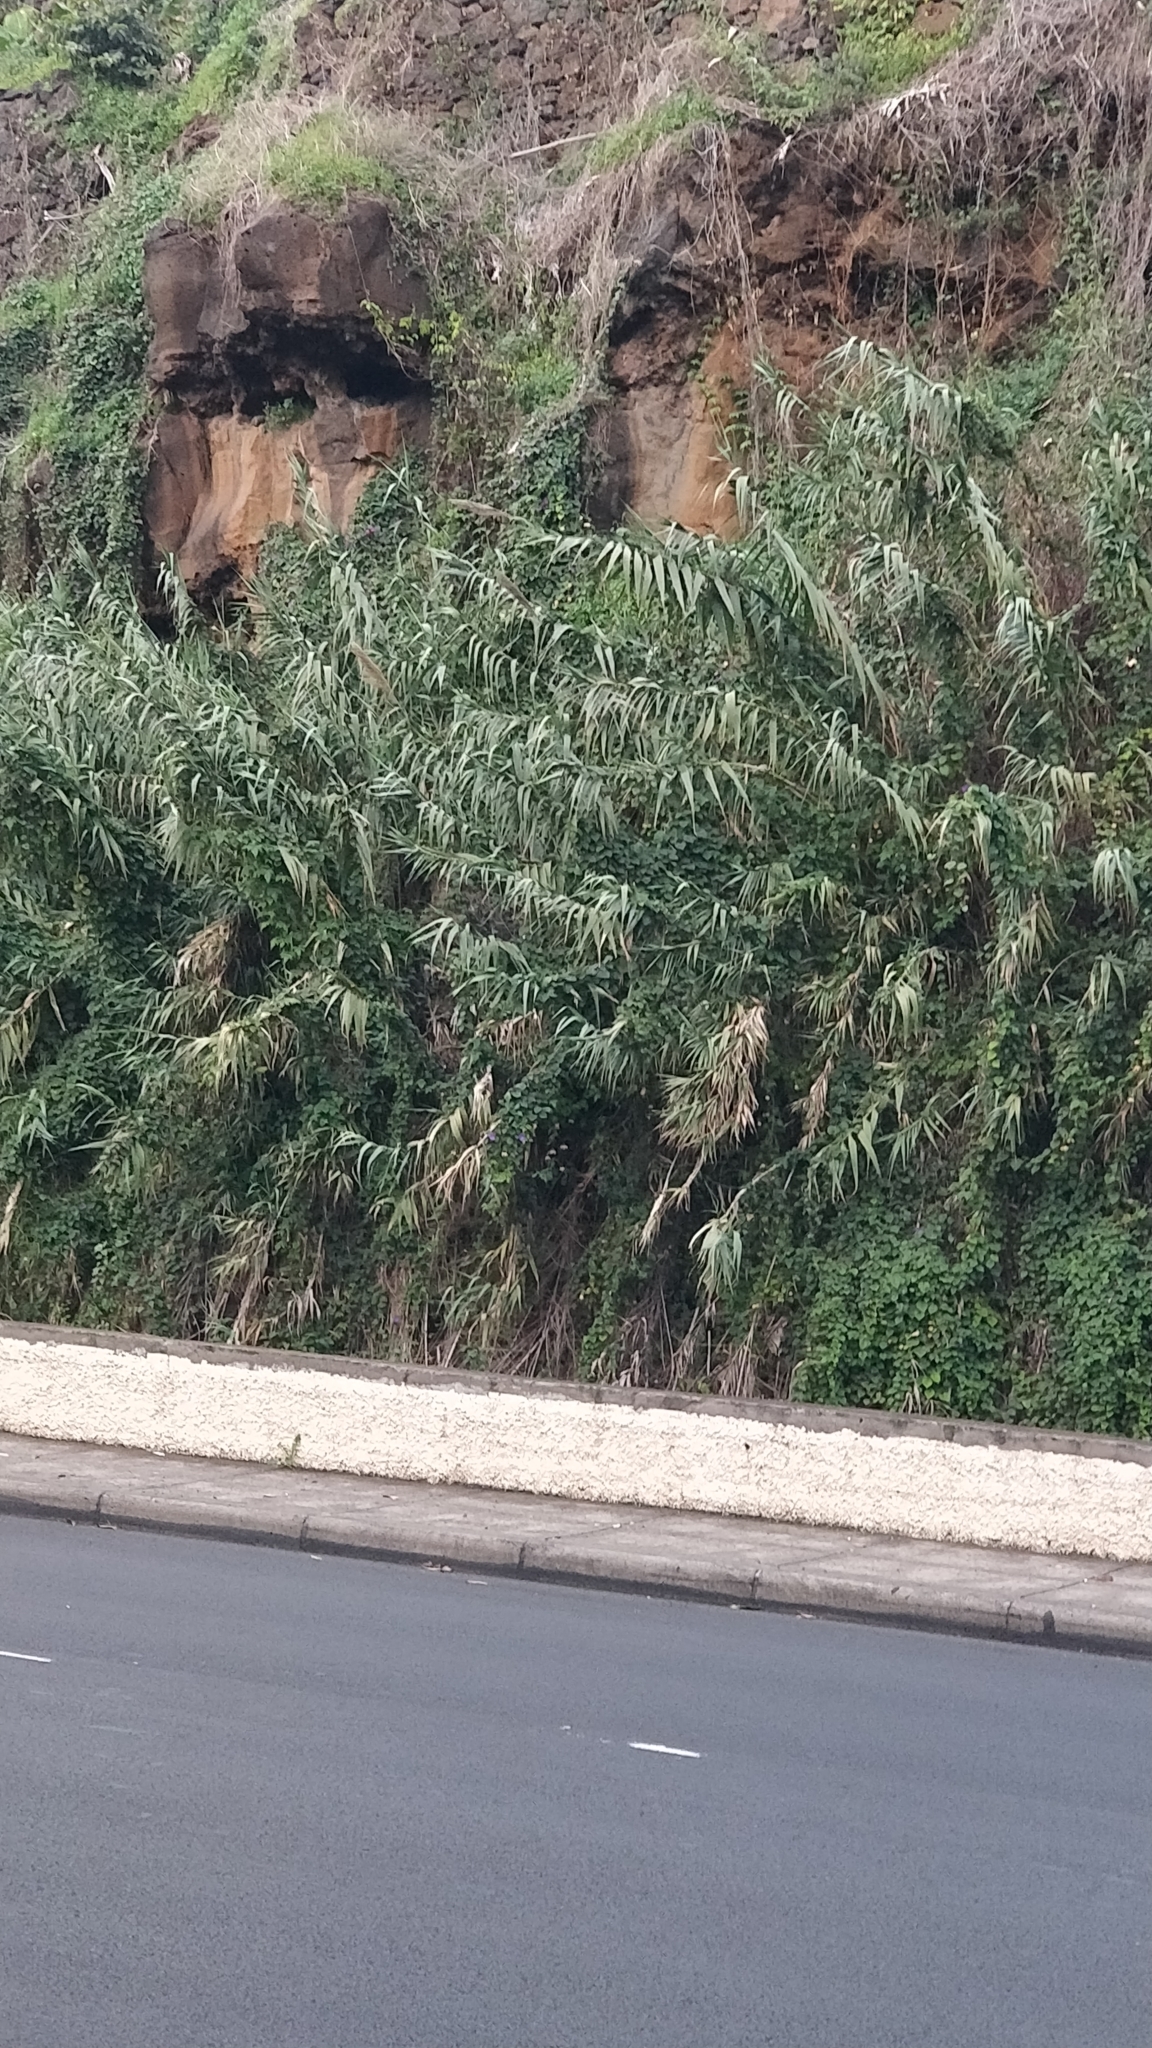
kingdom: Plantae
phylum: Tracheophyta
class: Liliopsida
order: Poales
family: Poaceae
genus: Arundo
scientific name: Arundo donax
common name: Giant reed
